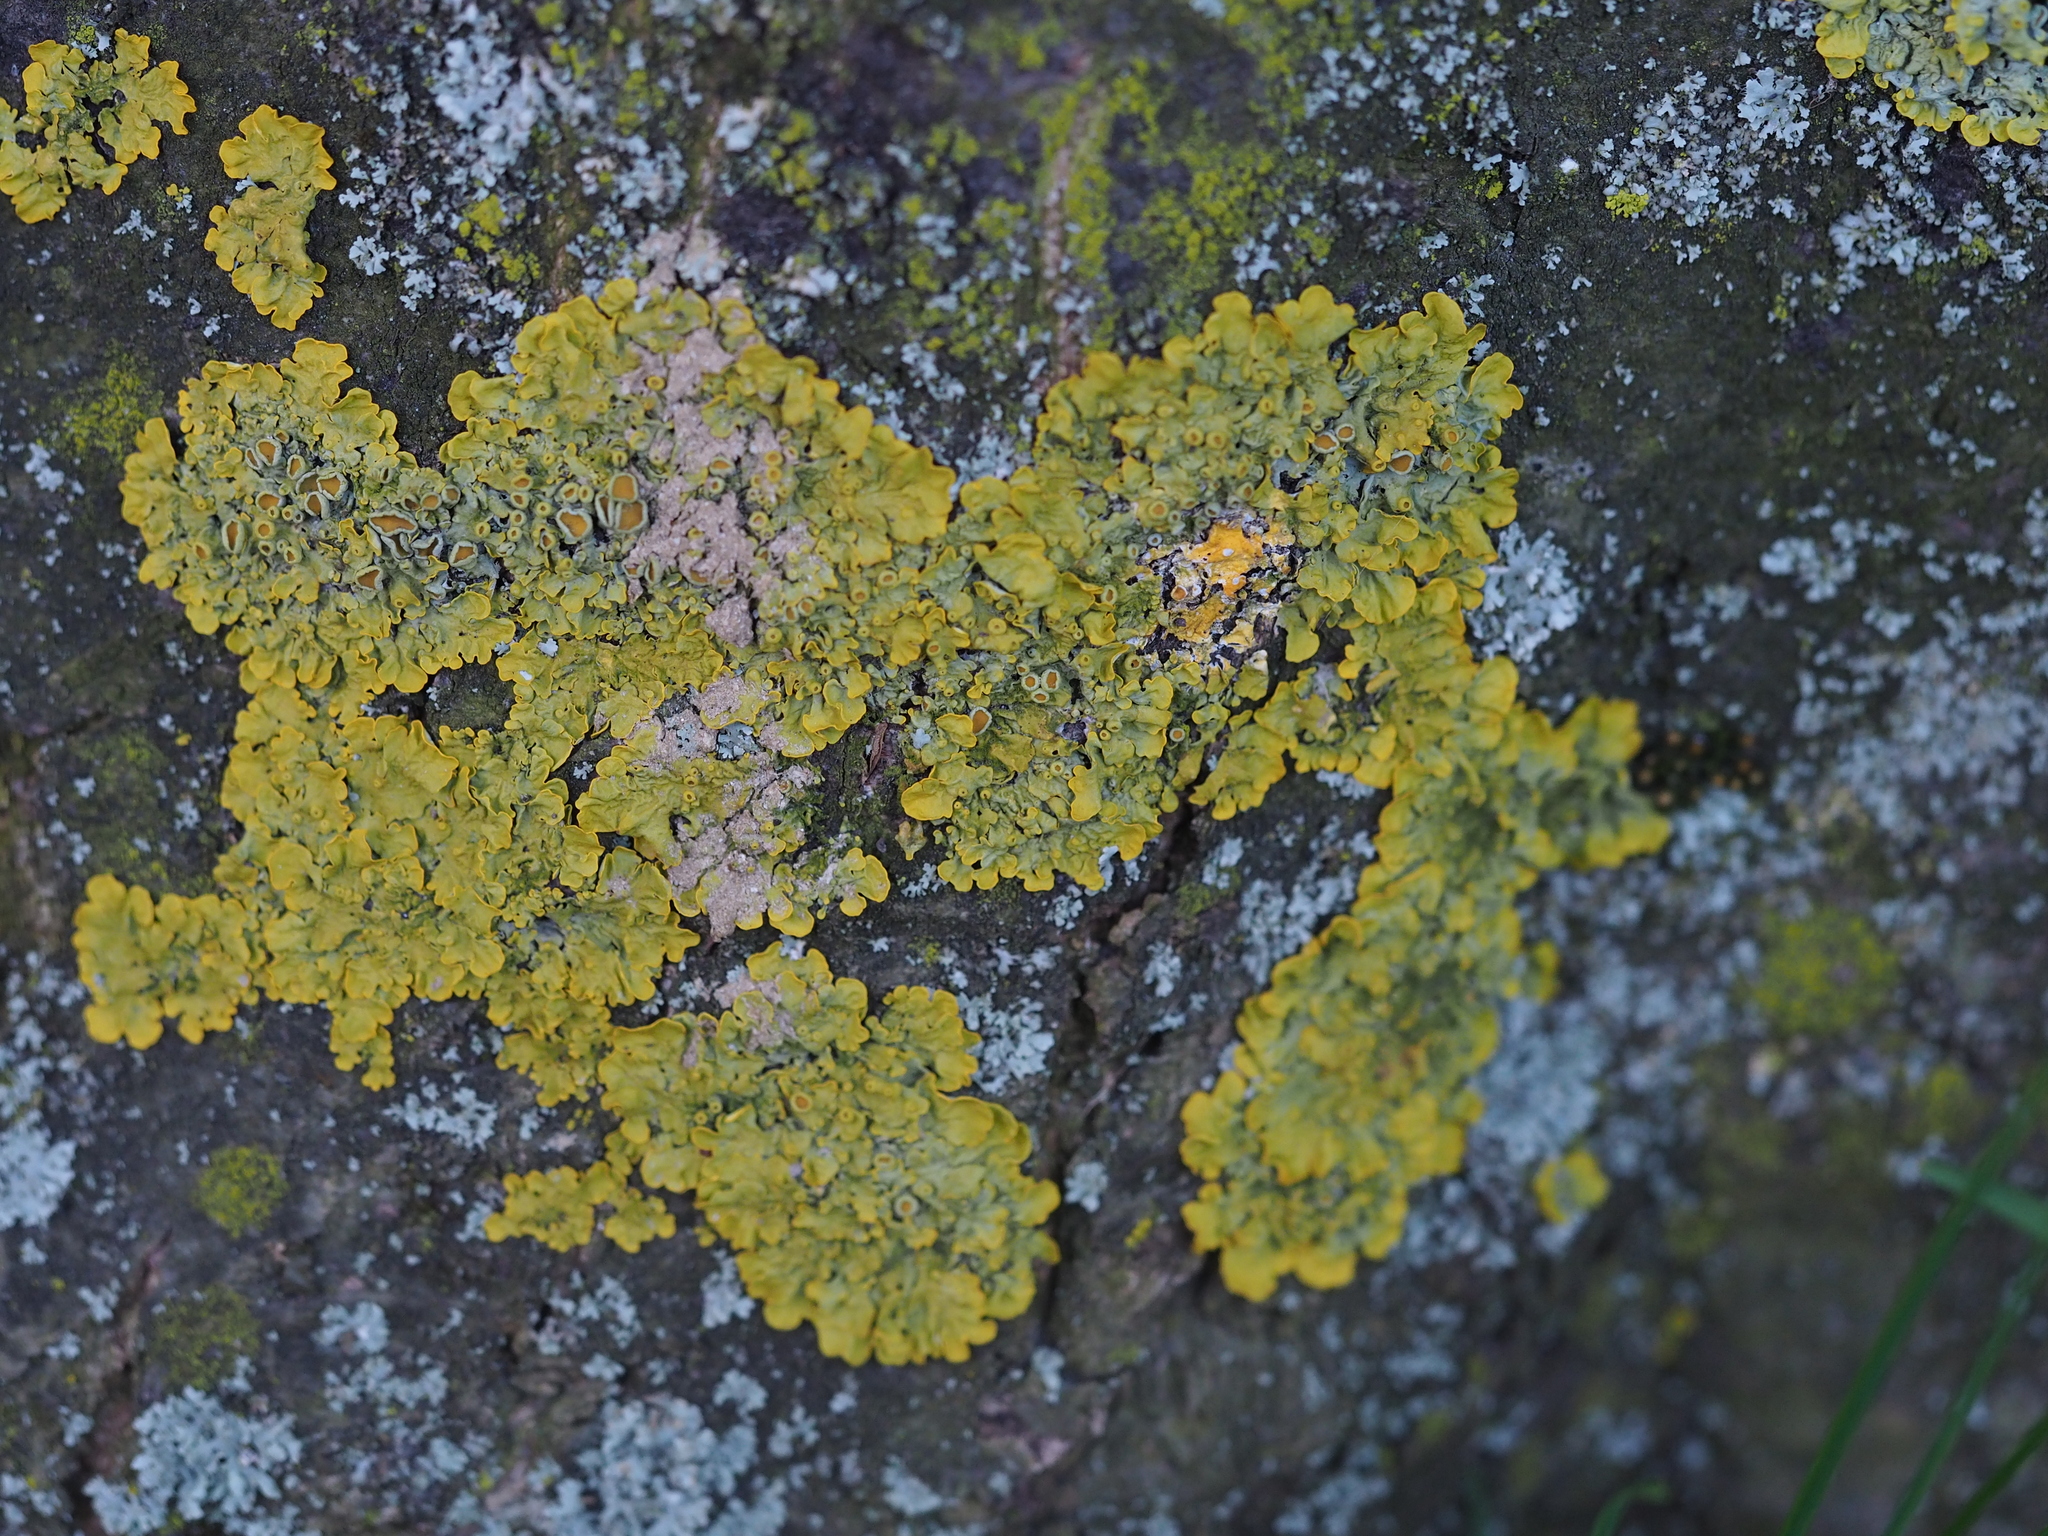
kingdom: Fungi
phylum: Ascomycota
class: Lecanoromycetes
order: Teloschistales
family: Teloschistaceae
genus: Xanthoria
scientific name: Xanthoria parietina
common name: Common orange lichen
